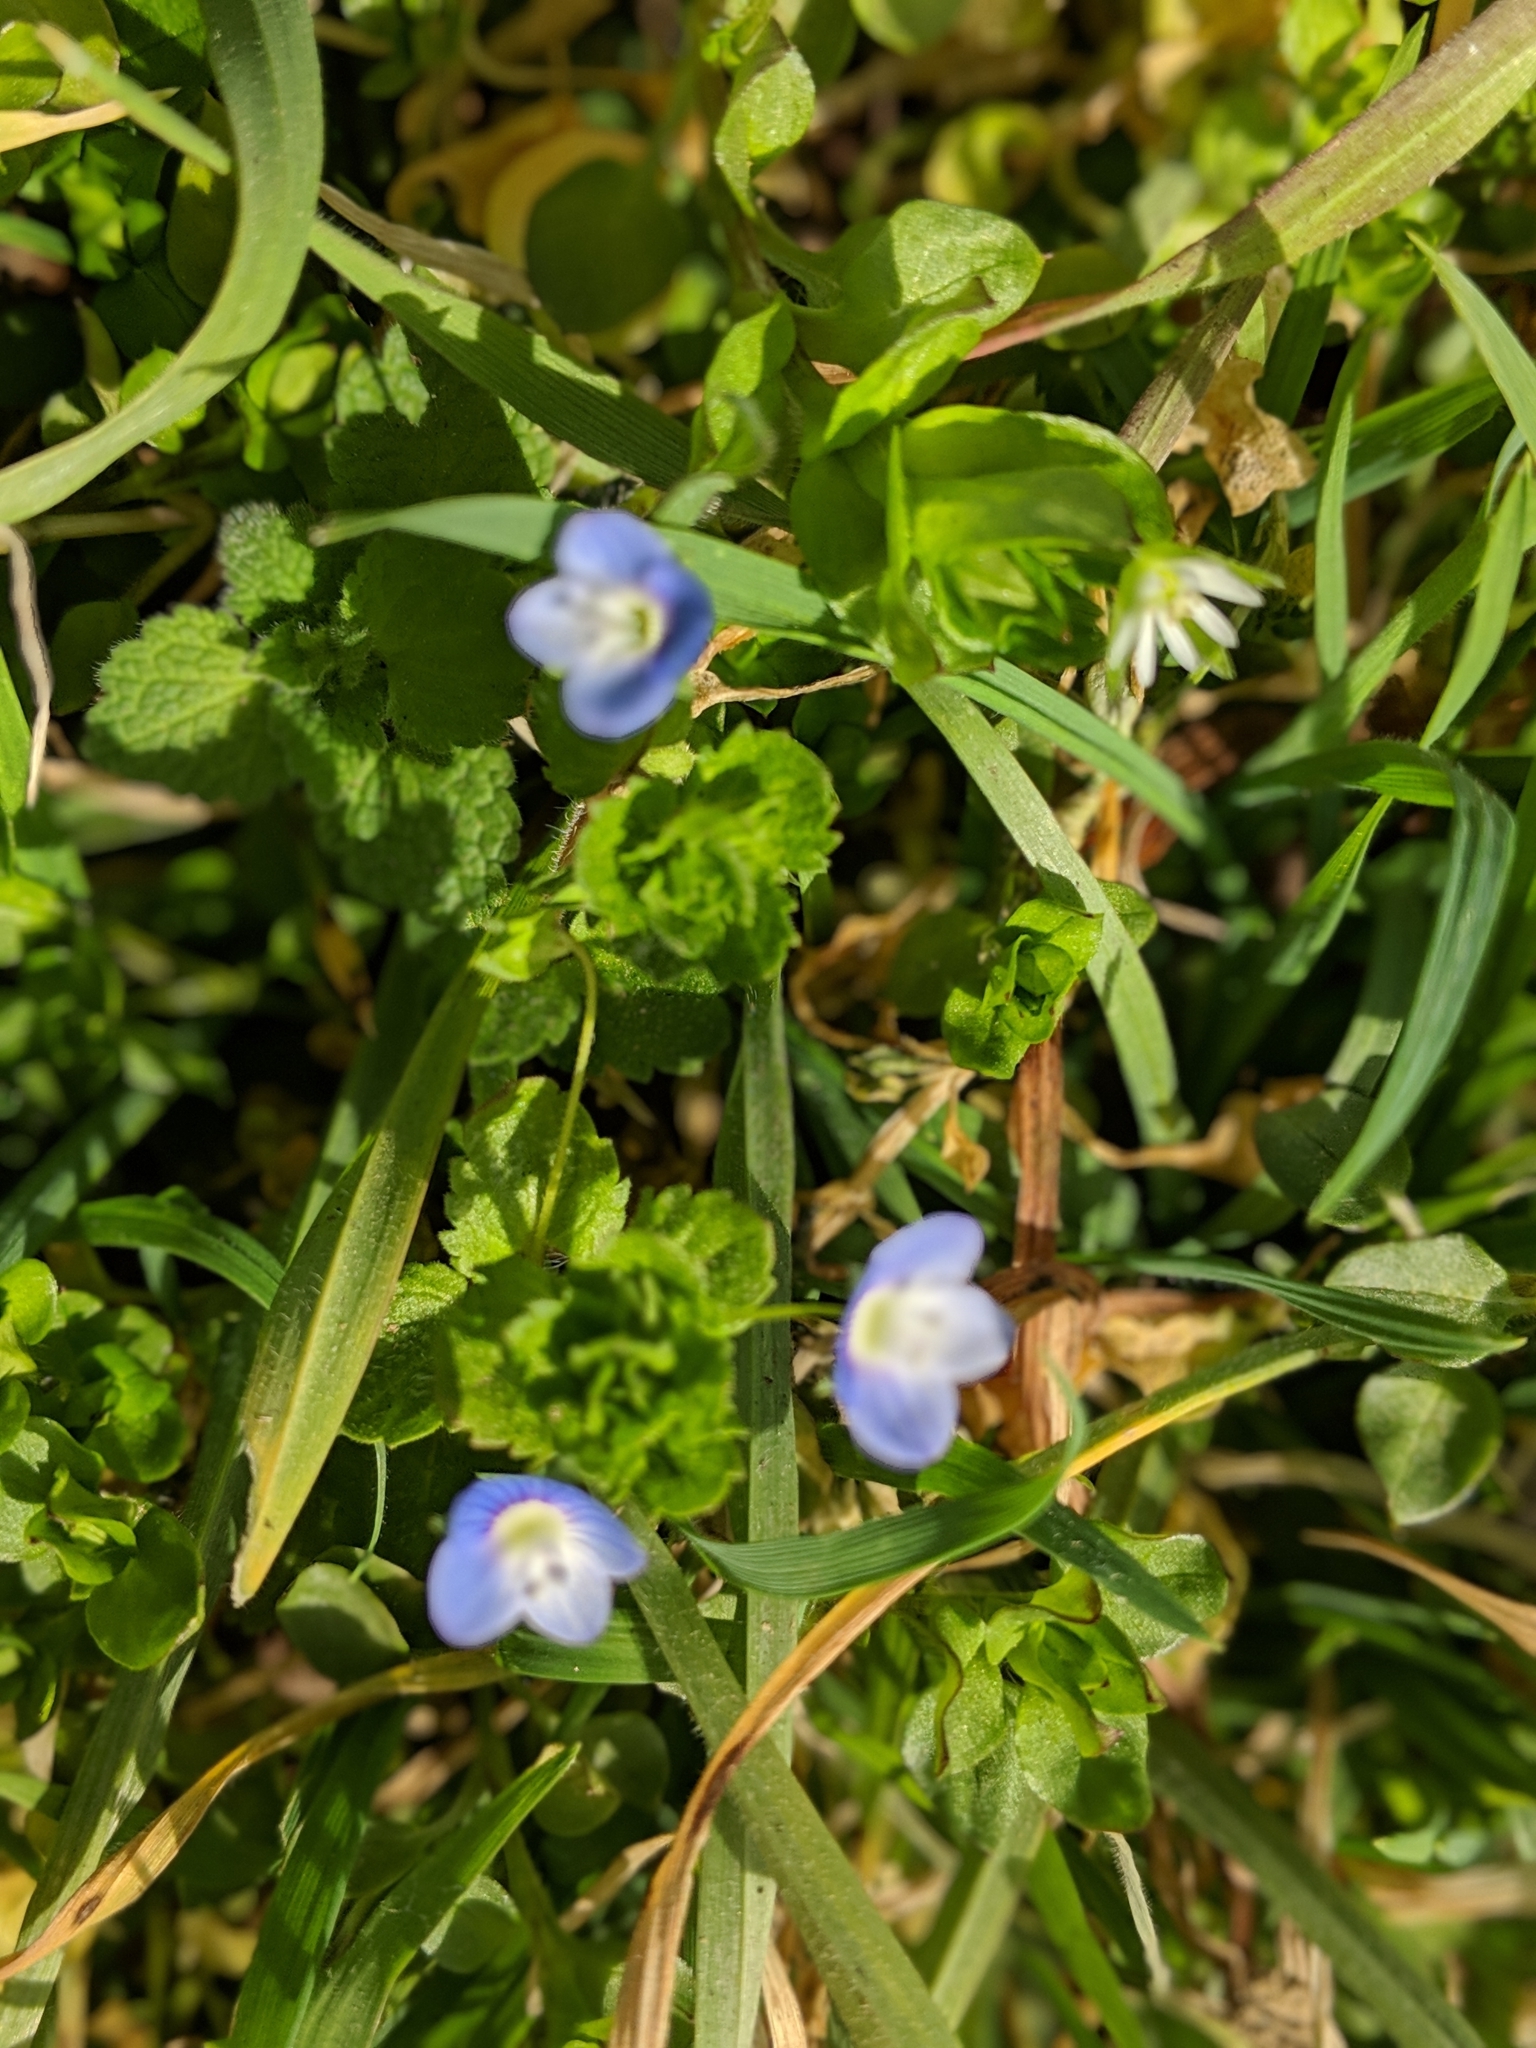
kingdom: Plantae
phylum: Tracheophyta
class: Magnoliopsida
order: Lamiales
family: Plantaginaceae
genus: Veronica
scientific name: Veronica persica
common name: Common field-speedwell
